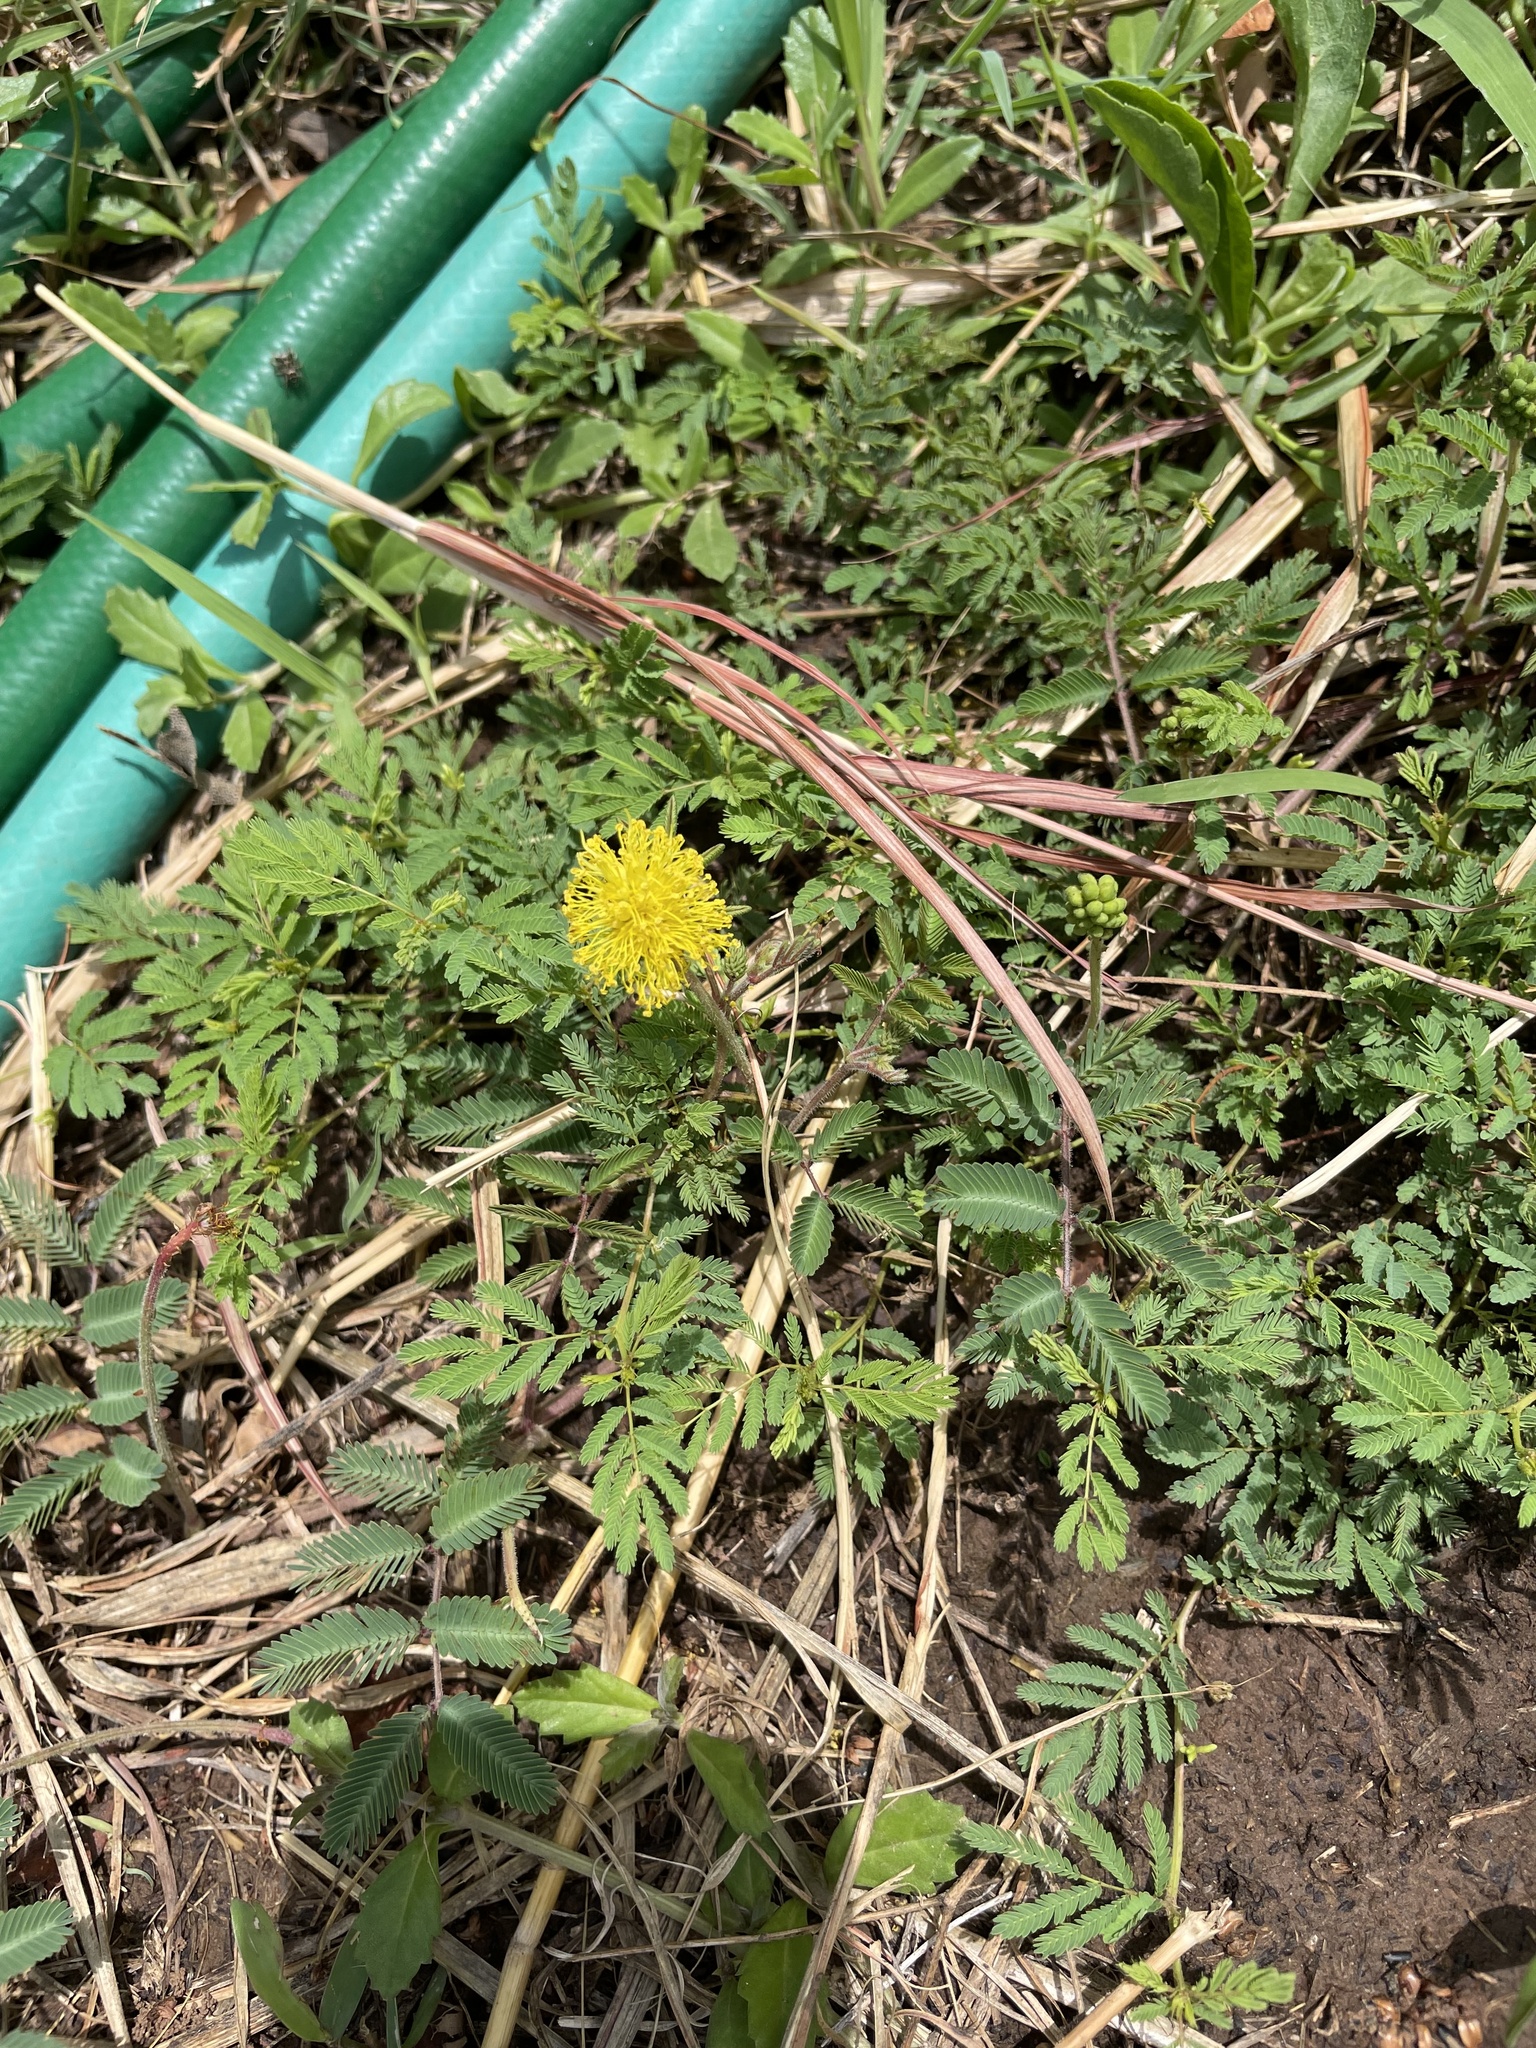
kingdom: Plantae
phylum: Tracheophyta
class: Magnoliopsida
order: Fabales
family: Fabaceae
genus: Neptunia
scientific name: Neptunia lutea
